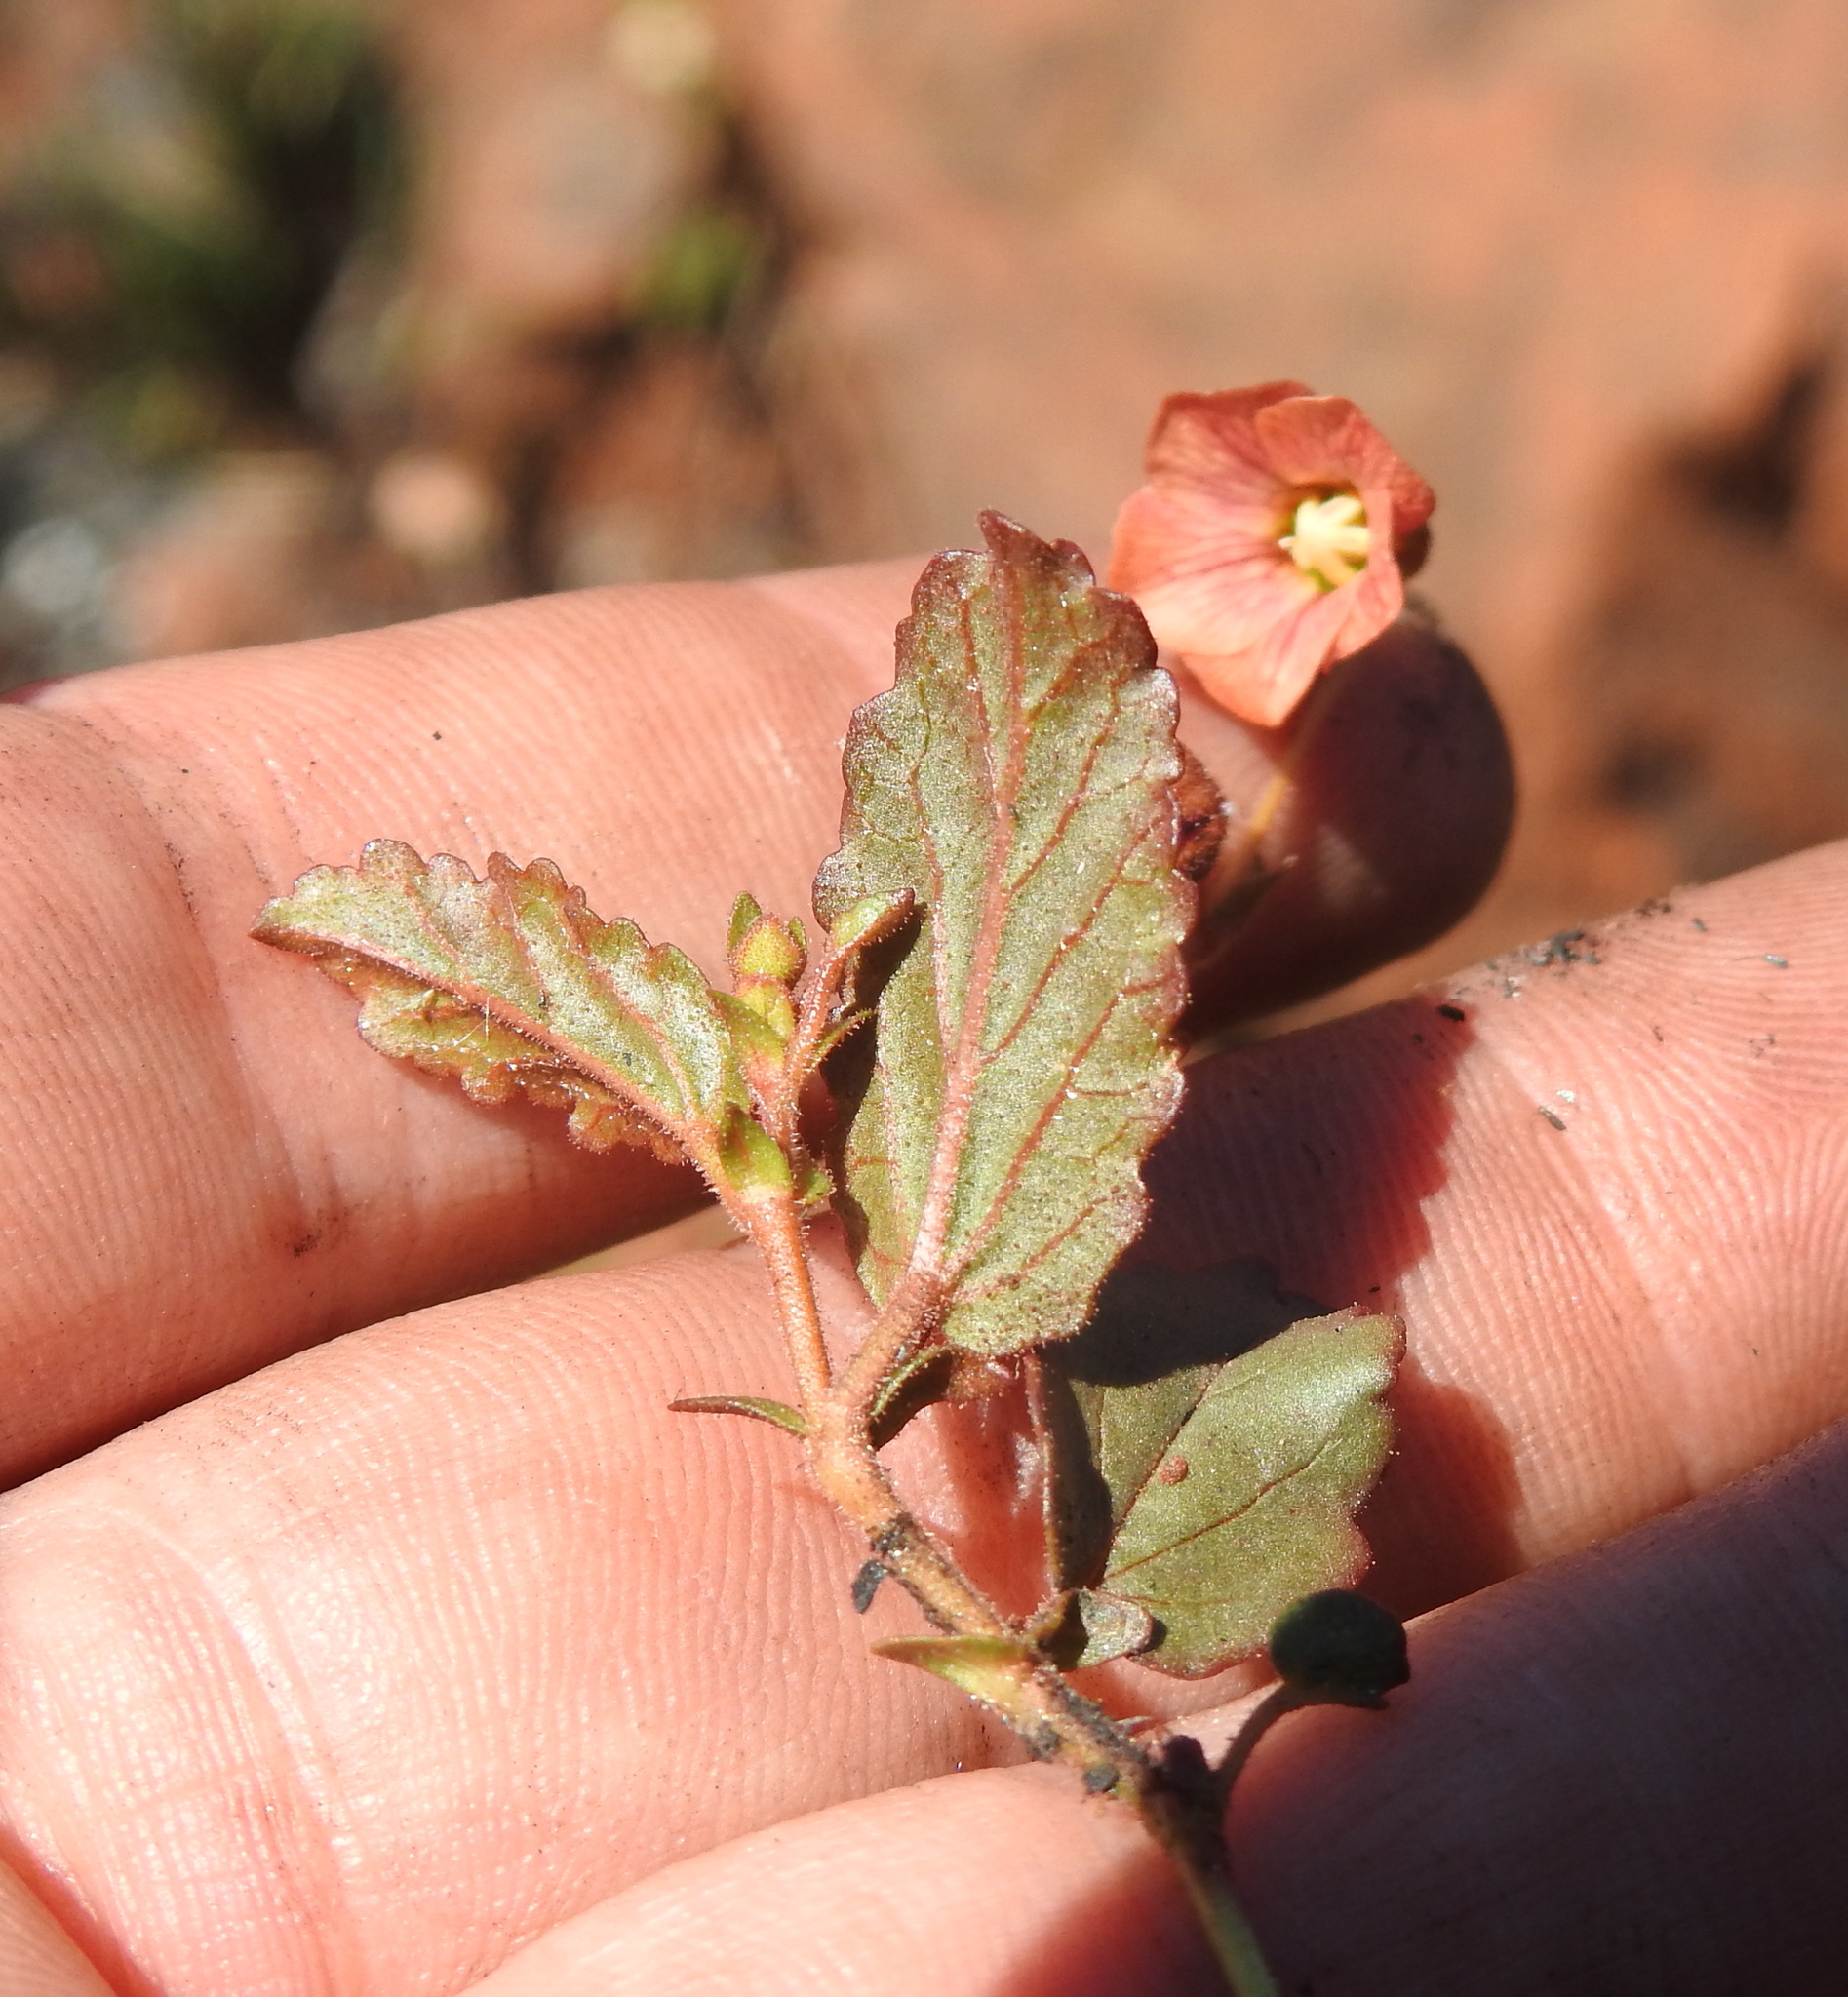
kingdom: Plantae
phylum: Tracheophyta
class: Magnoliopsida
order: Malvales
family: Malvaceae
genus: Hermannia
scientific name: Hermannia depressa
